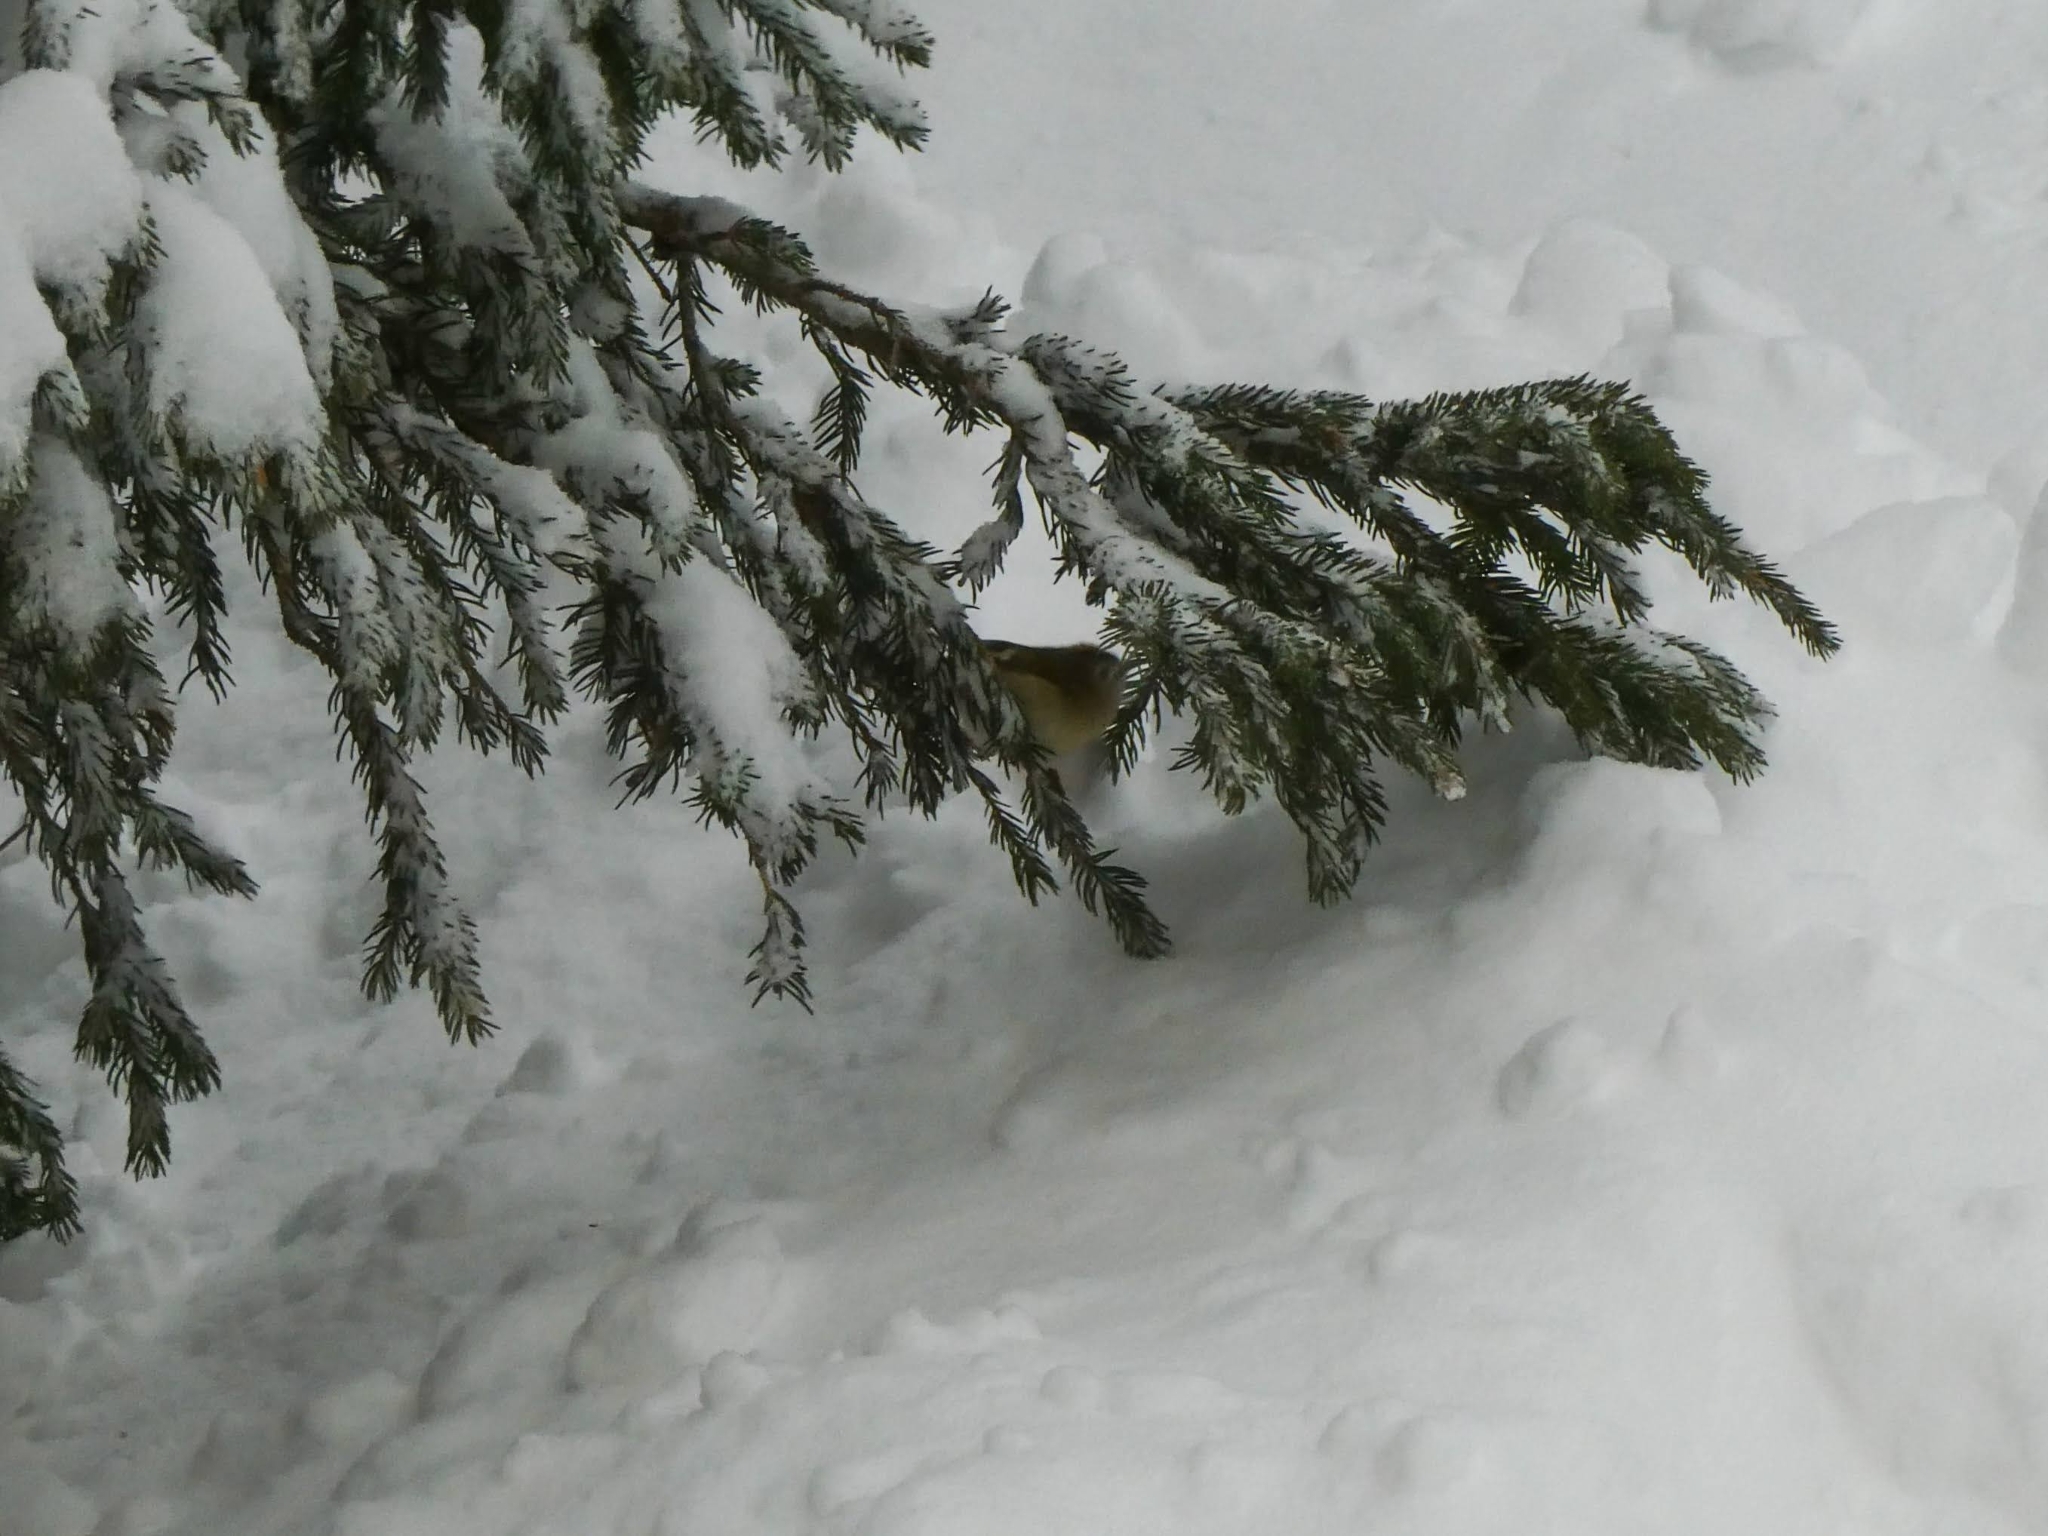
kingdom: Animalia
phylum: Chordata
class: Aves
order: Passeriformes
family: Regulidae
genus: Regulus
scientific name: Regulus regulus
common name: Goldcrest
